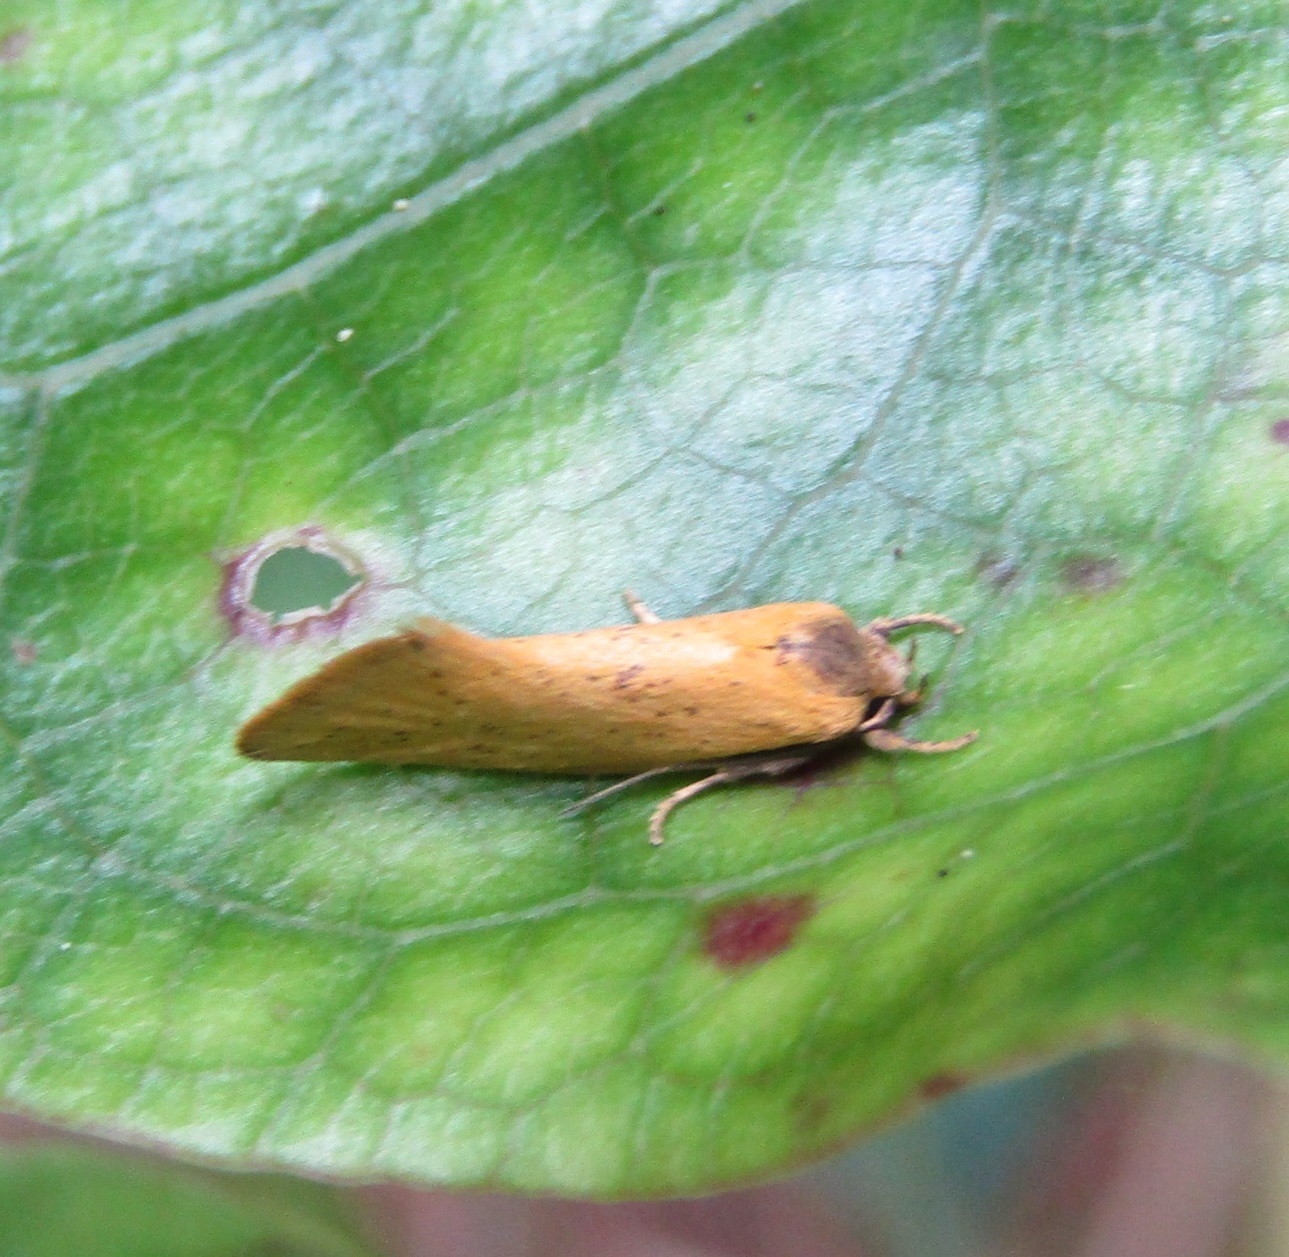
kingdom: Animalia
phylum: Arthropoda
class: Insecta
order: Lepidoptera
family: Oecophoridae
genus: Tingena
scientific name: Tingena armigerella
